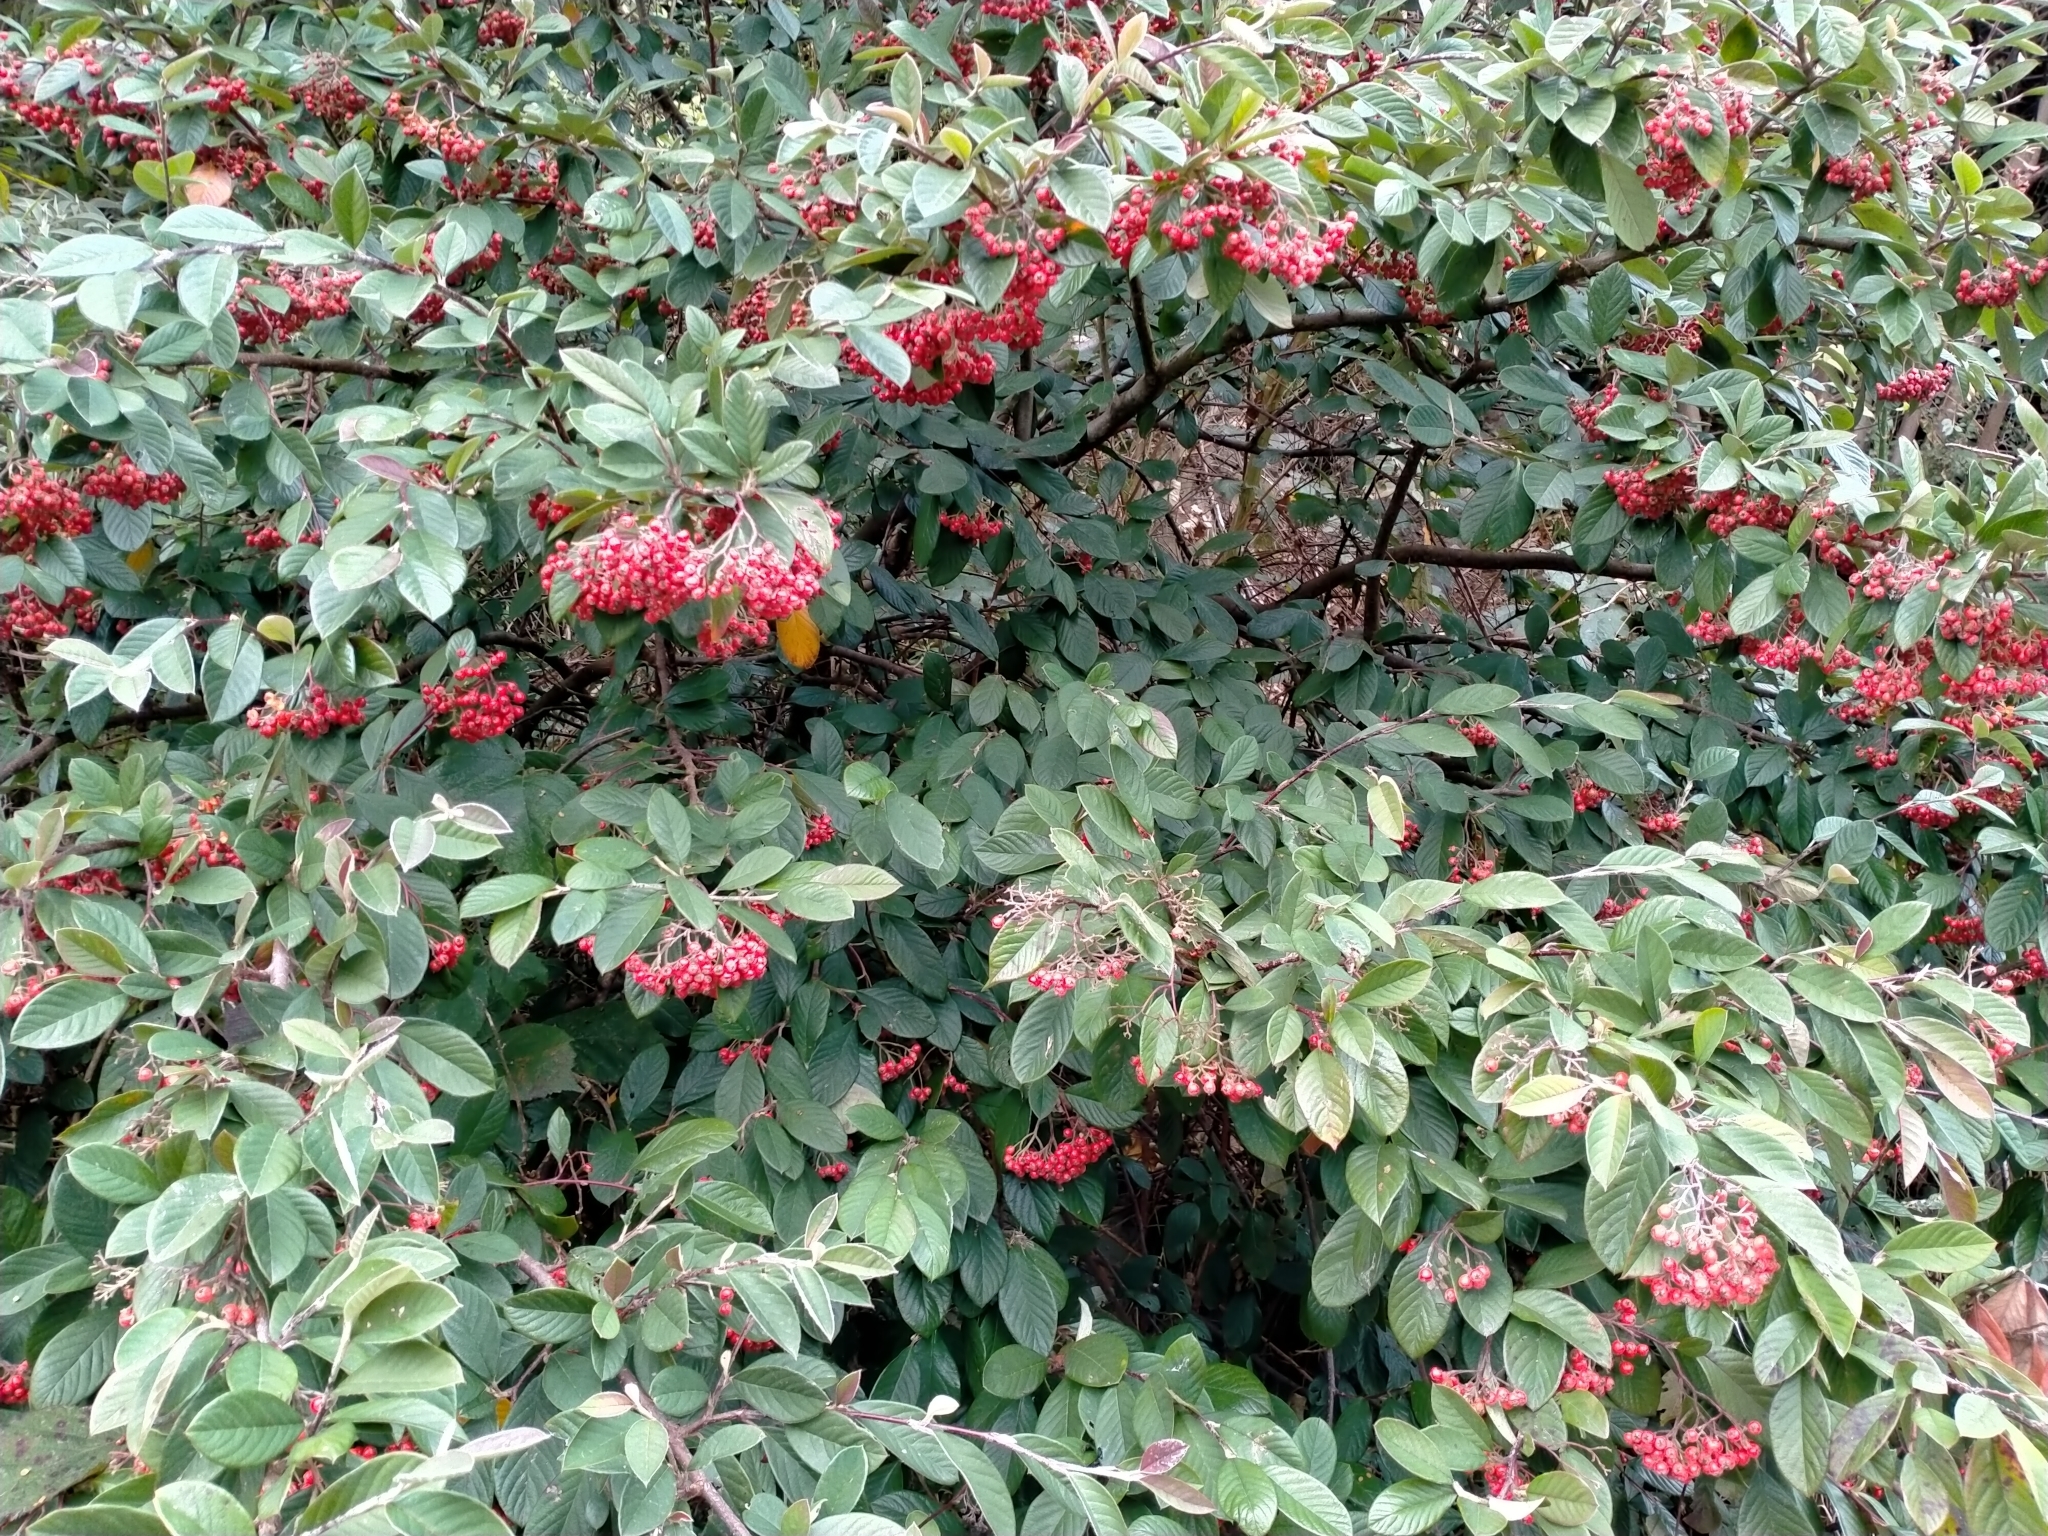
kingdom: Plantae
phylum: Tracheophyta
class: Magnoliopsida
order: Rosales
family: Rosaceae
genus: Cotoneaster
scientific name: Cotoneaster coriaceus
